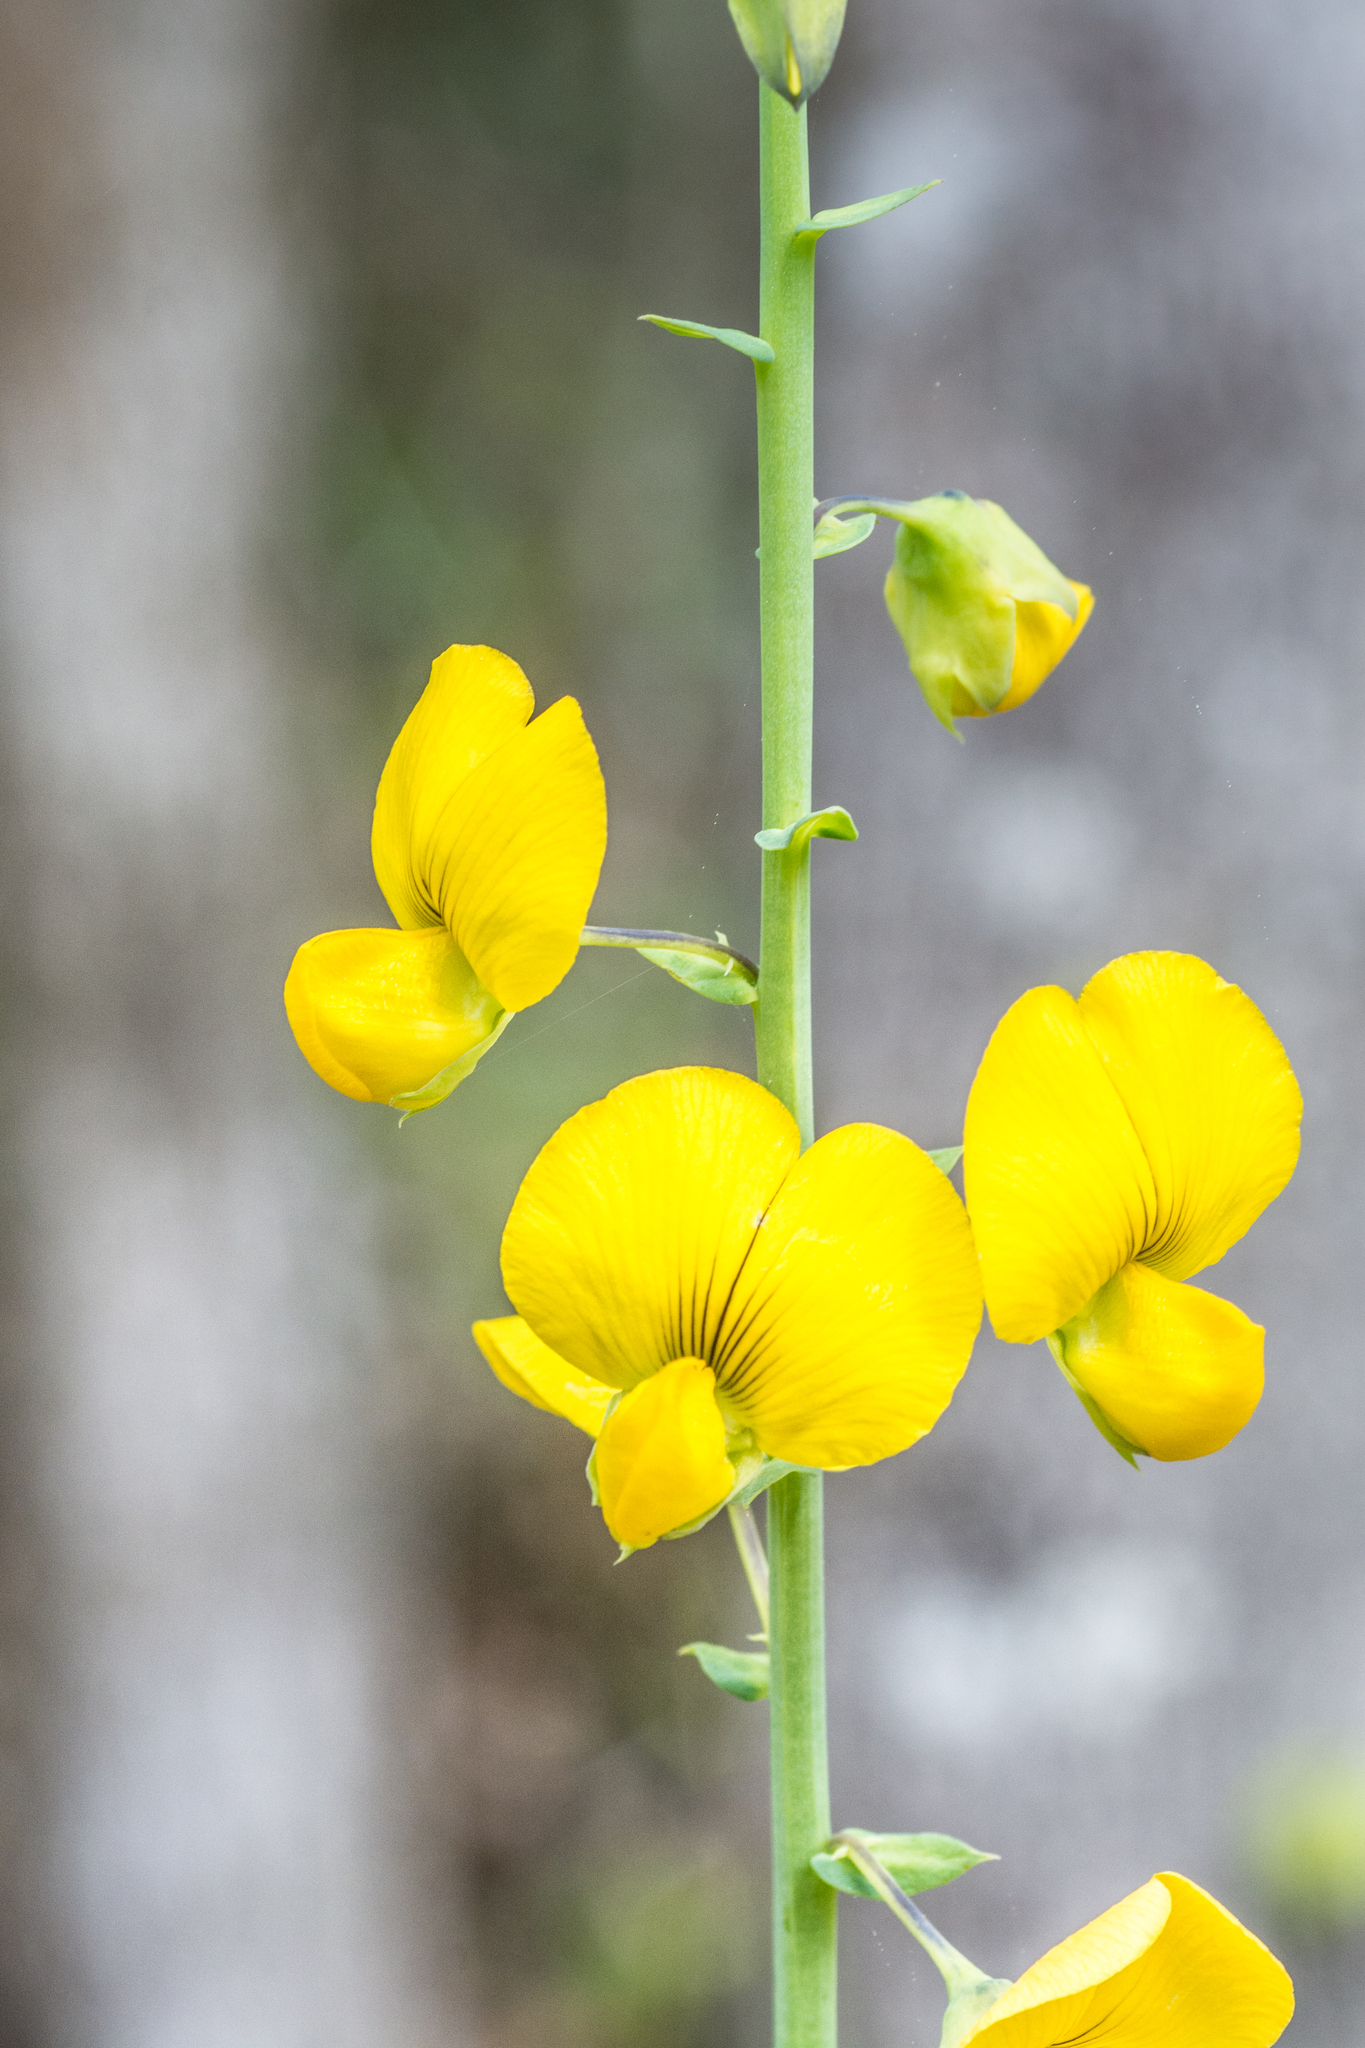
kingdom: Plantae
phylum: Tracheophyta
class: Magnoliopsida
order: Fabales
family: Fabaceae
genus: Crotalaria
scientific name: Crotalaria spectabilis
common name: Showy rattlebox
